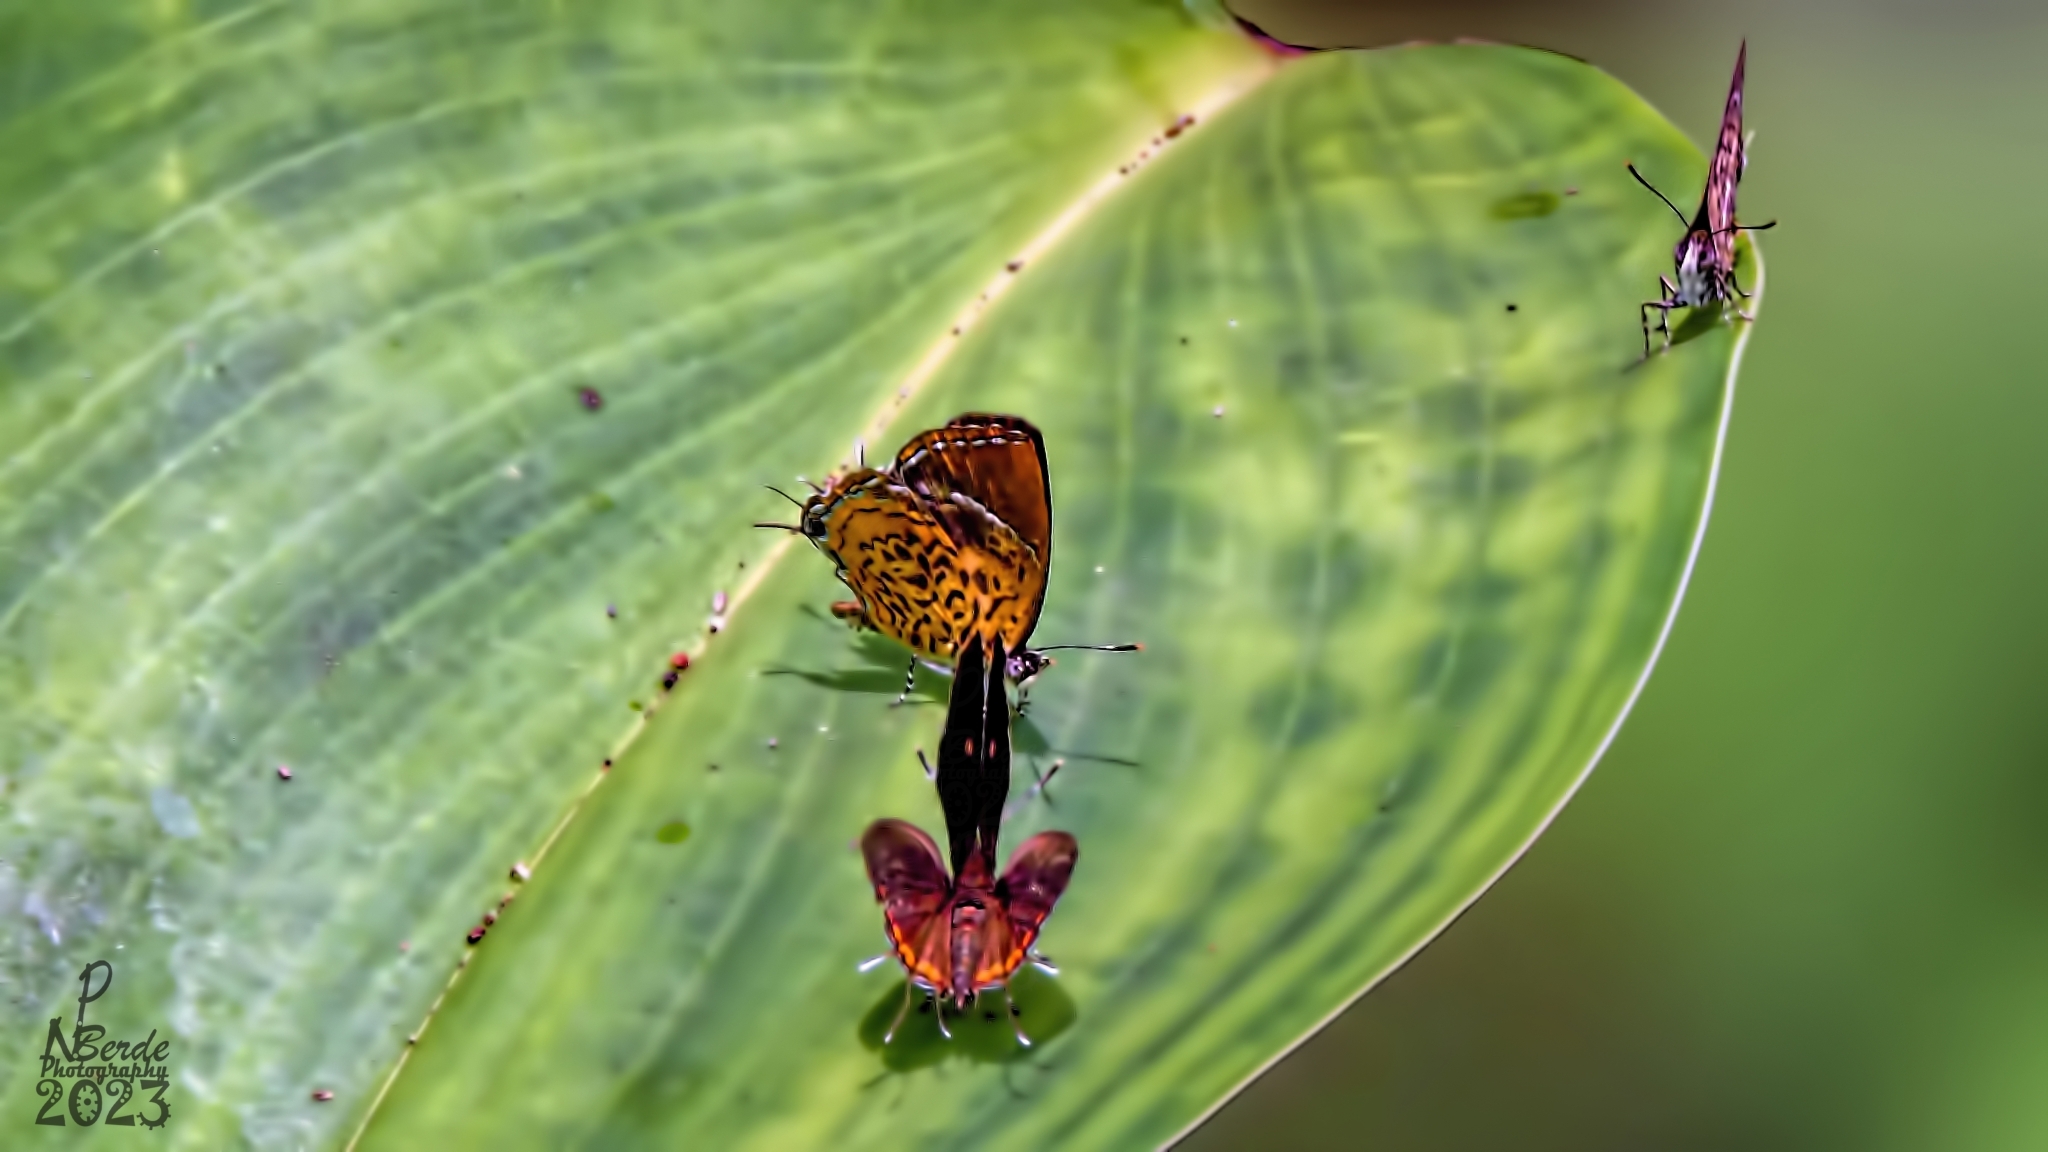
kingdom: Animalia
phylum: Arthropoda
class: Insecta
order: Lepidoptera
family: Lycaenidae
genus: Rathinda
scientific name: Rathinda amor
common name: Monkey puzzle
